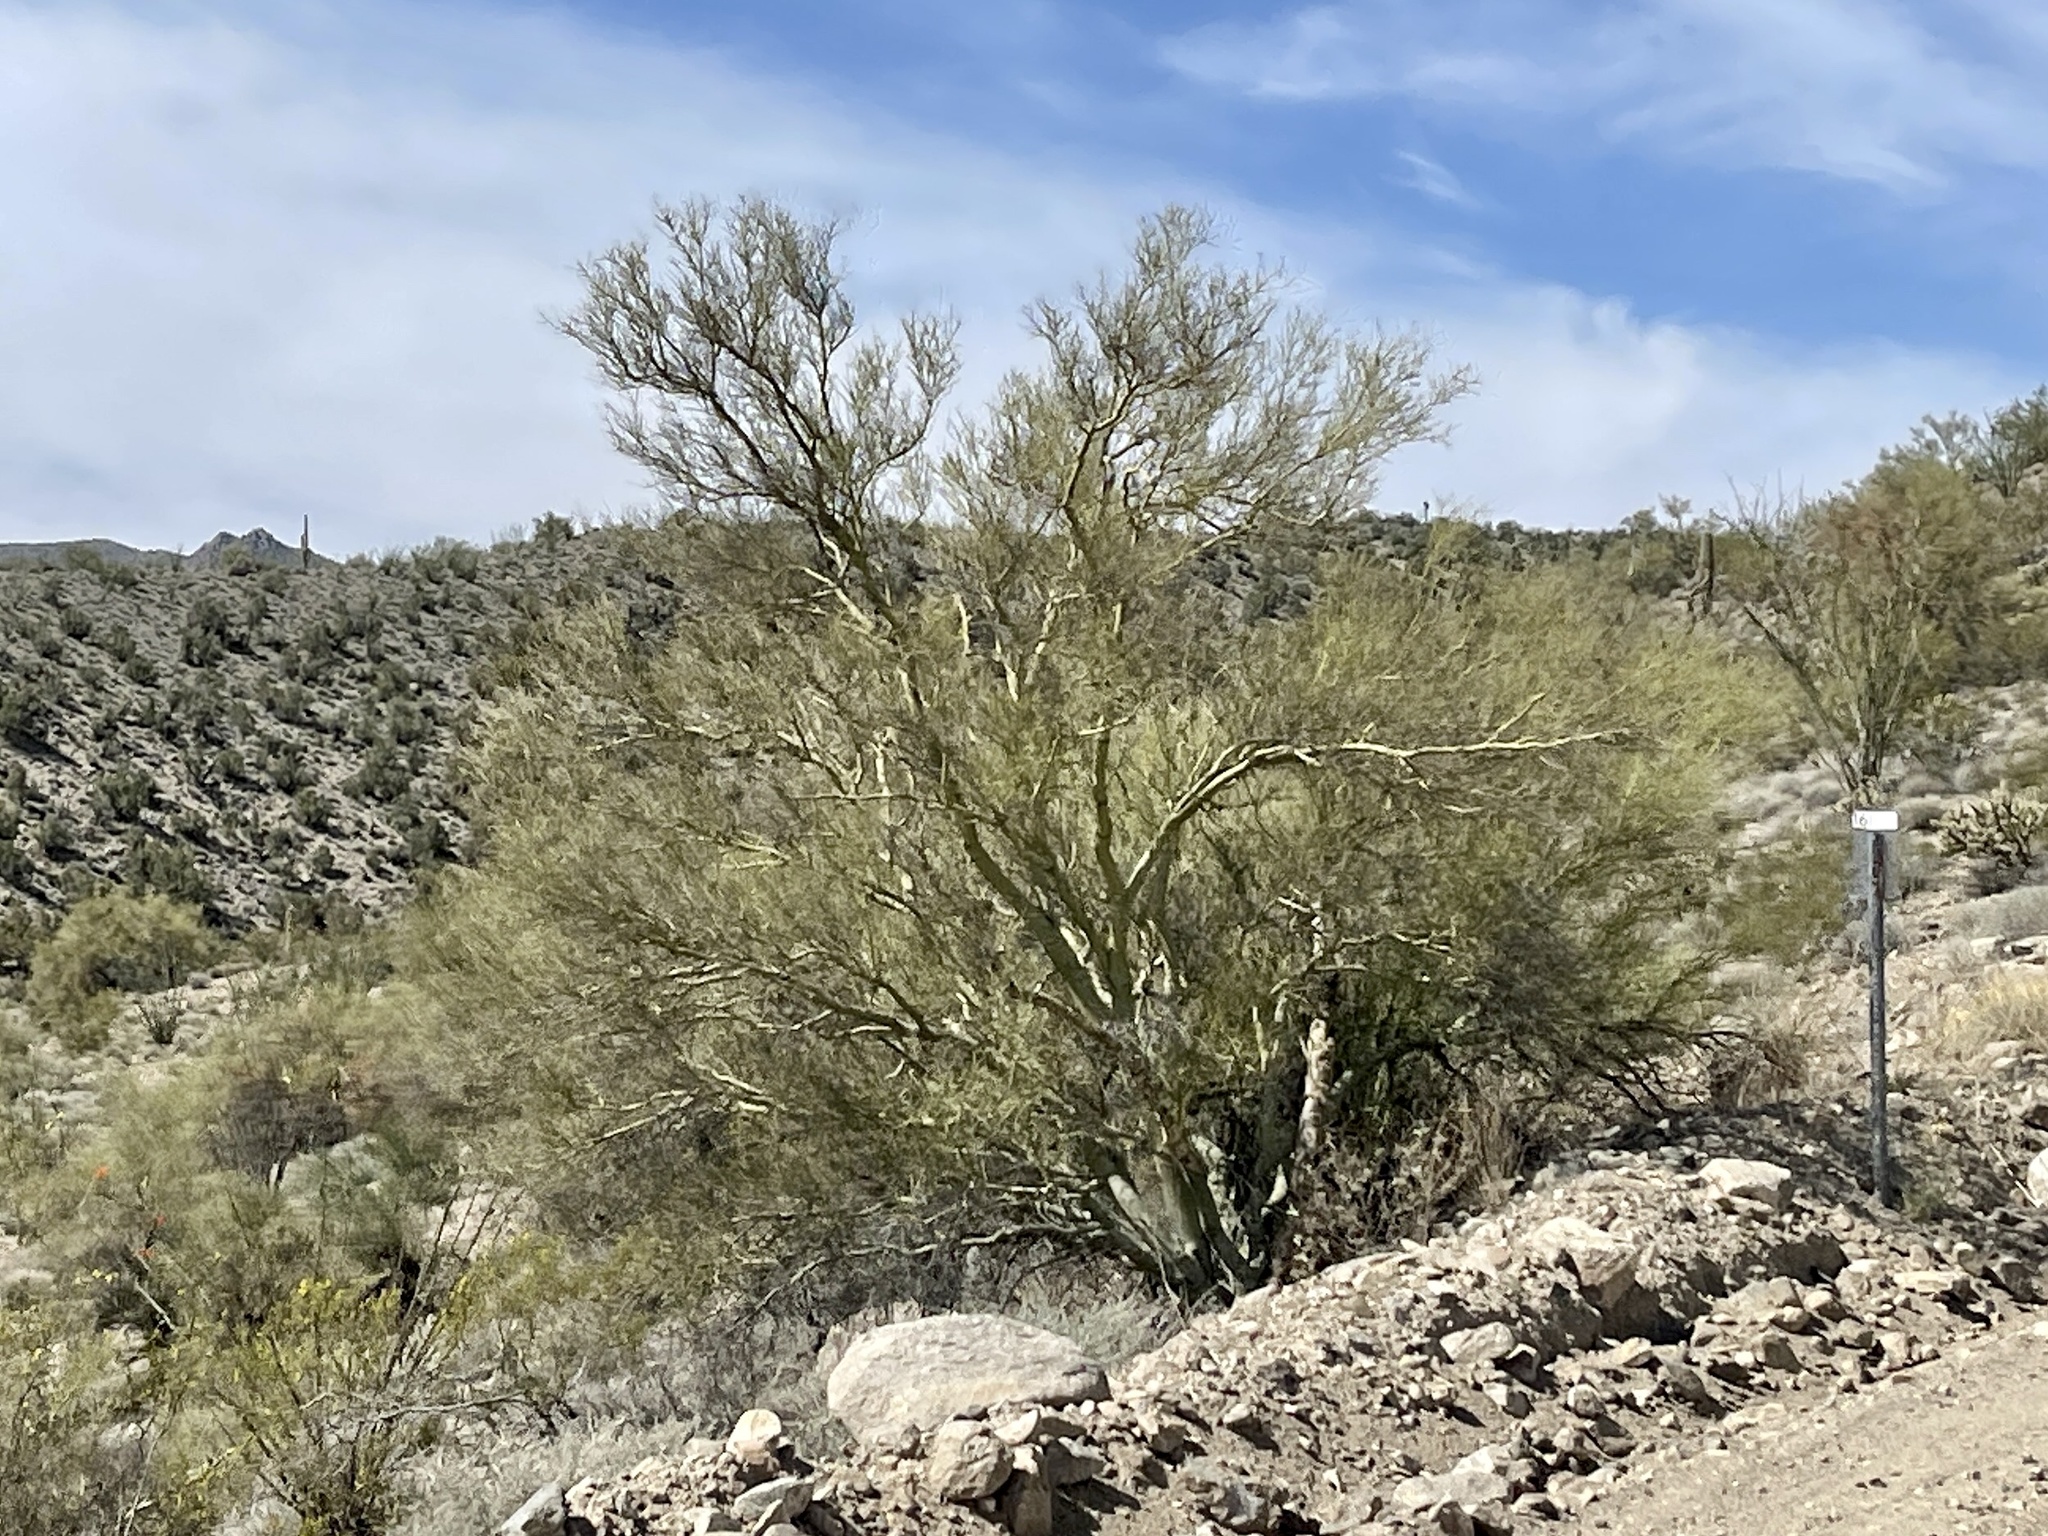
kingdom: Plantae
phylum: Tracheophyta
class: Magnoliopsida
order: Fabales
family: Fabaceae
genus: Parkinsonia
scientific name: Parkinsonia microphylla
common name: Yellow paloverde
